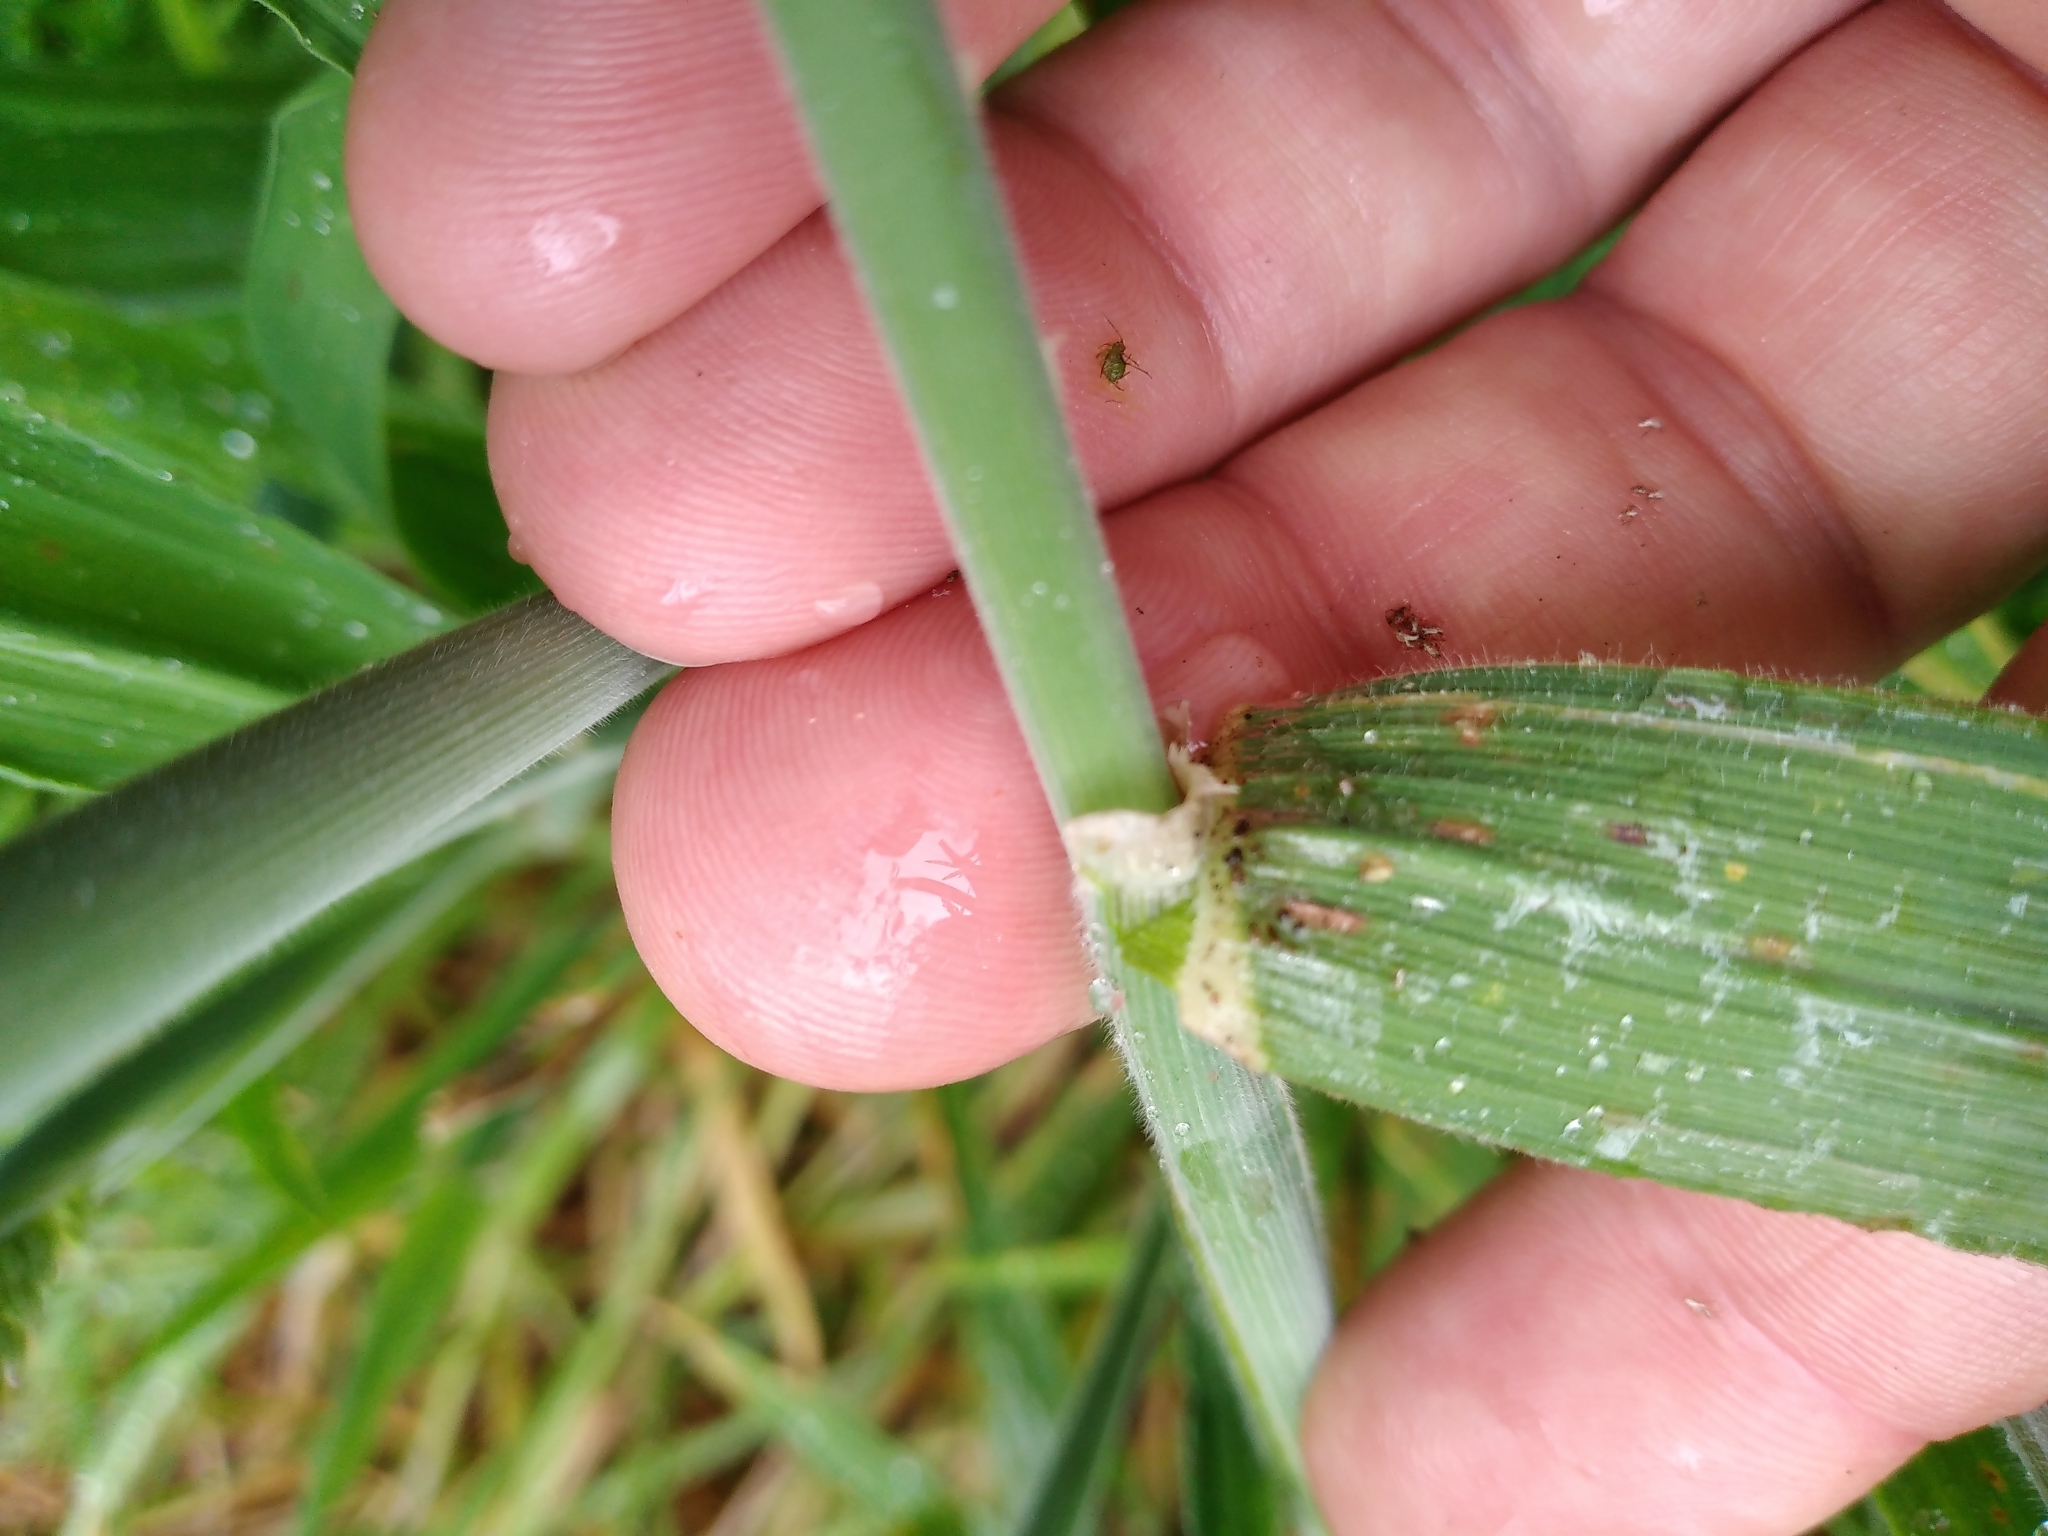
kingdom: Plantae
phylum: Tracheophyta
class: Liliopsida
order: Poales
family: Poaceae
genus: Holcus
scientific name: Holcus lanatus
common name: Yorkshire-fog
